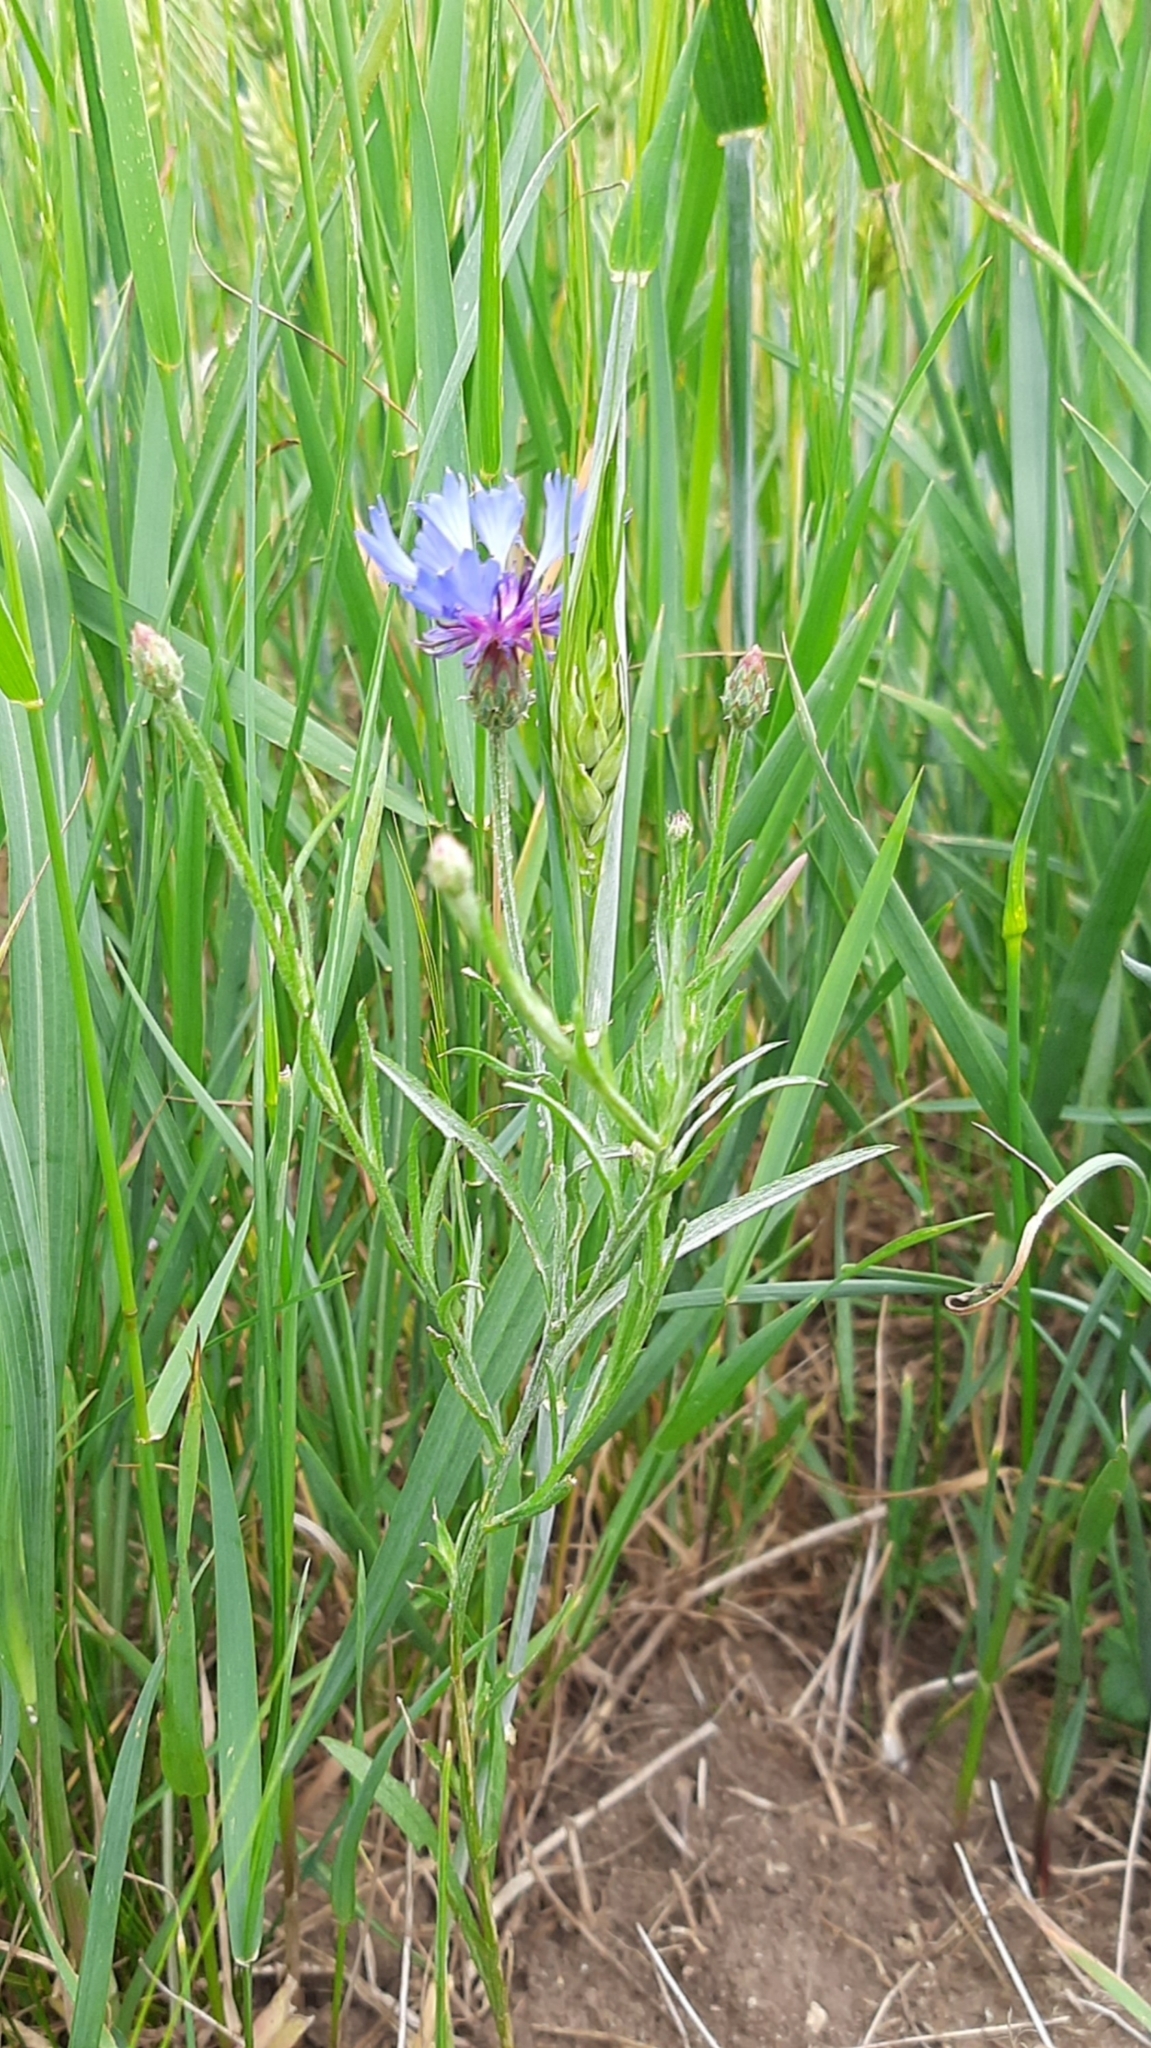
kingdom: Plantae
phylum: Tracheophyta
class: Magnoliopsida
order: Asterales
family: Asteraceae
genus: Centaurea
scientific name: Centaurea cyanus
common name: Cornflower
